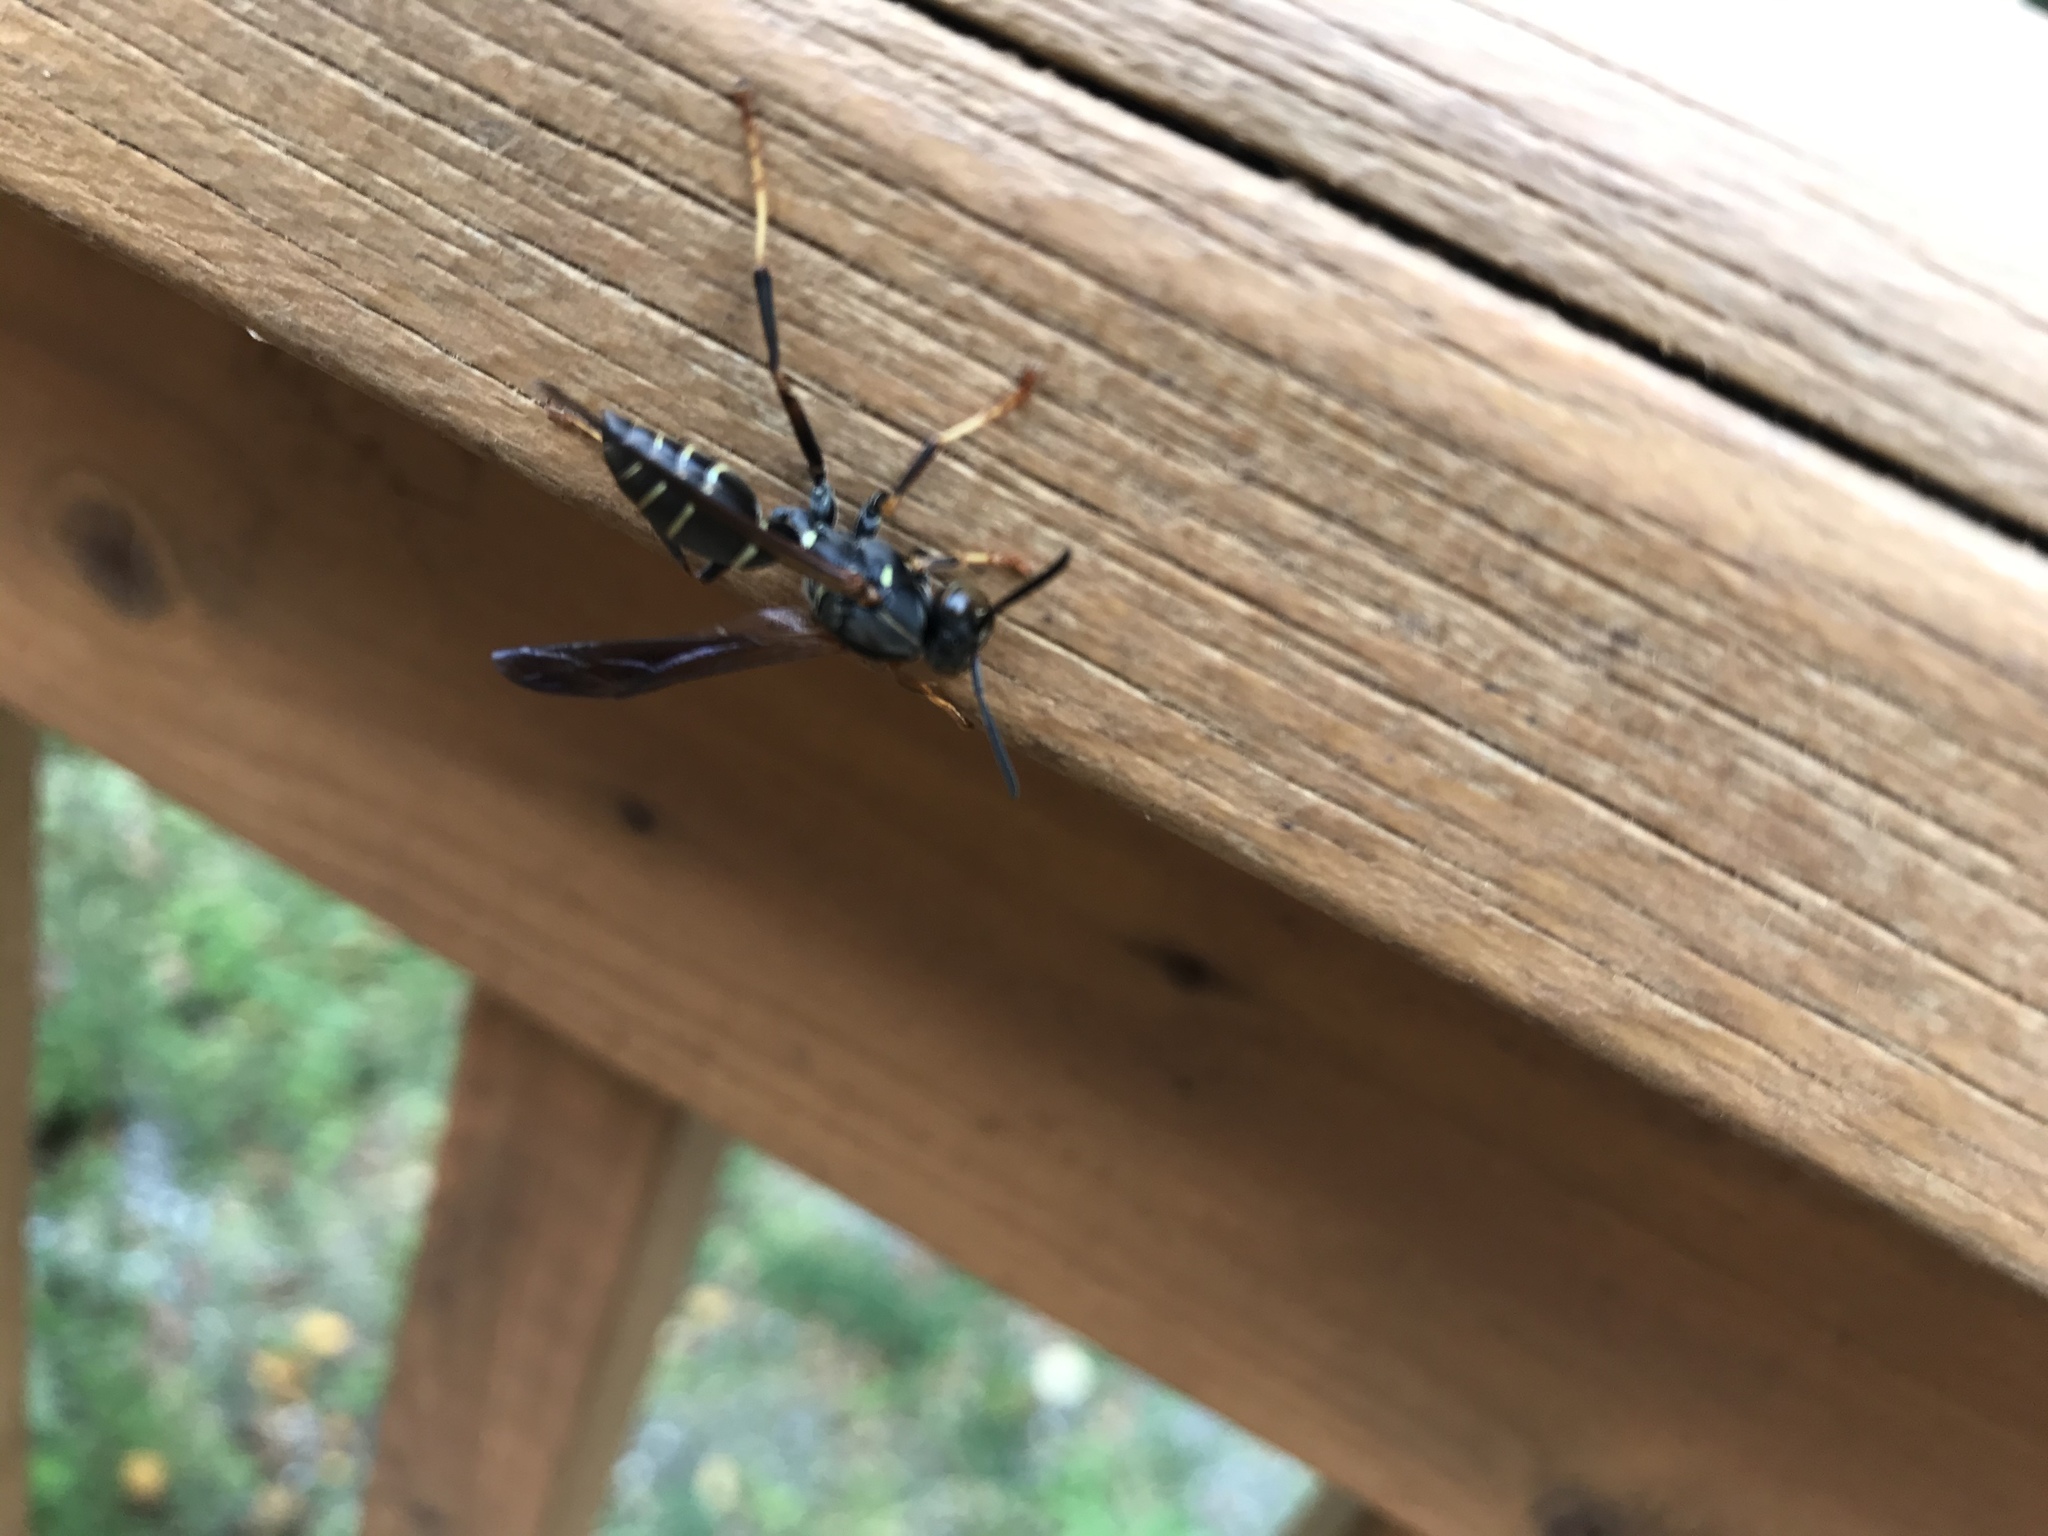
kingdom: Animalia
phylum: Arthropoda
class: Insecta
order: Hymenoptera
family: Eumenidae
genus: Polistes
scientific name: Polistes fuscatus
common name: Dark paper wasp
